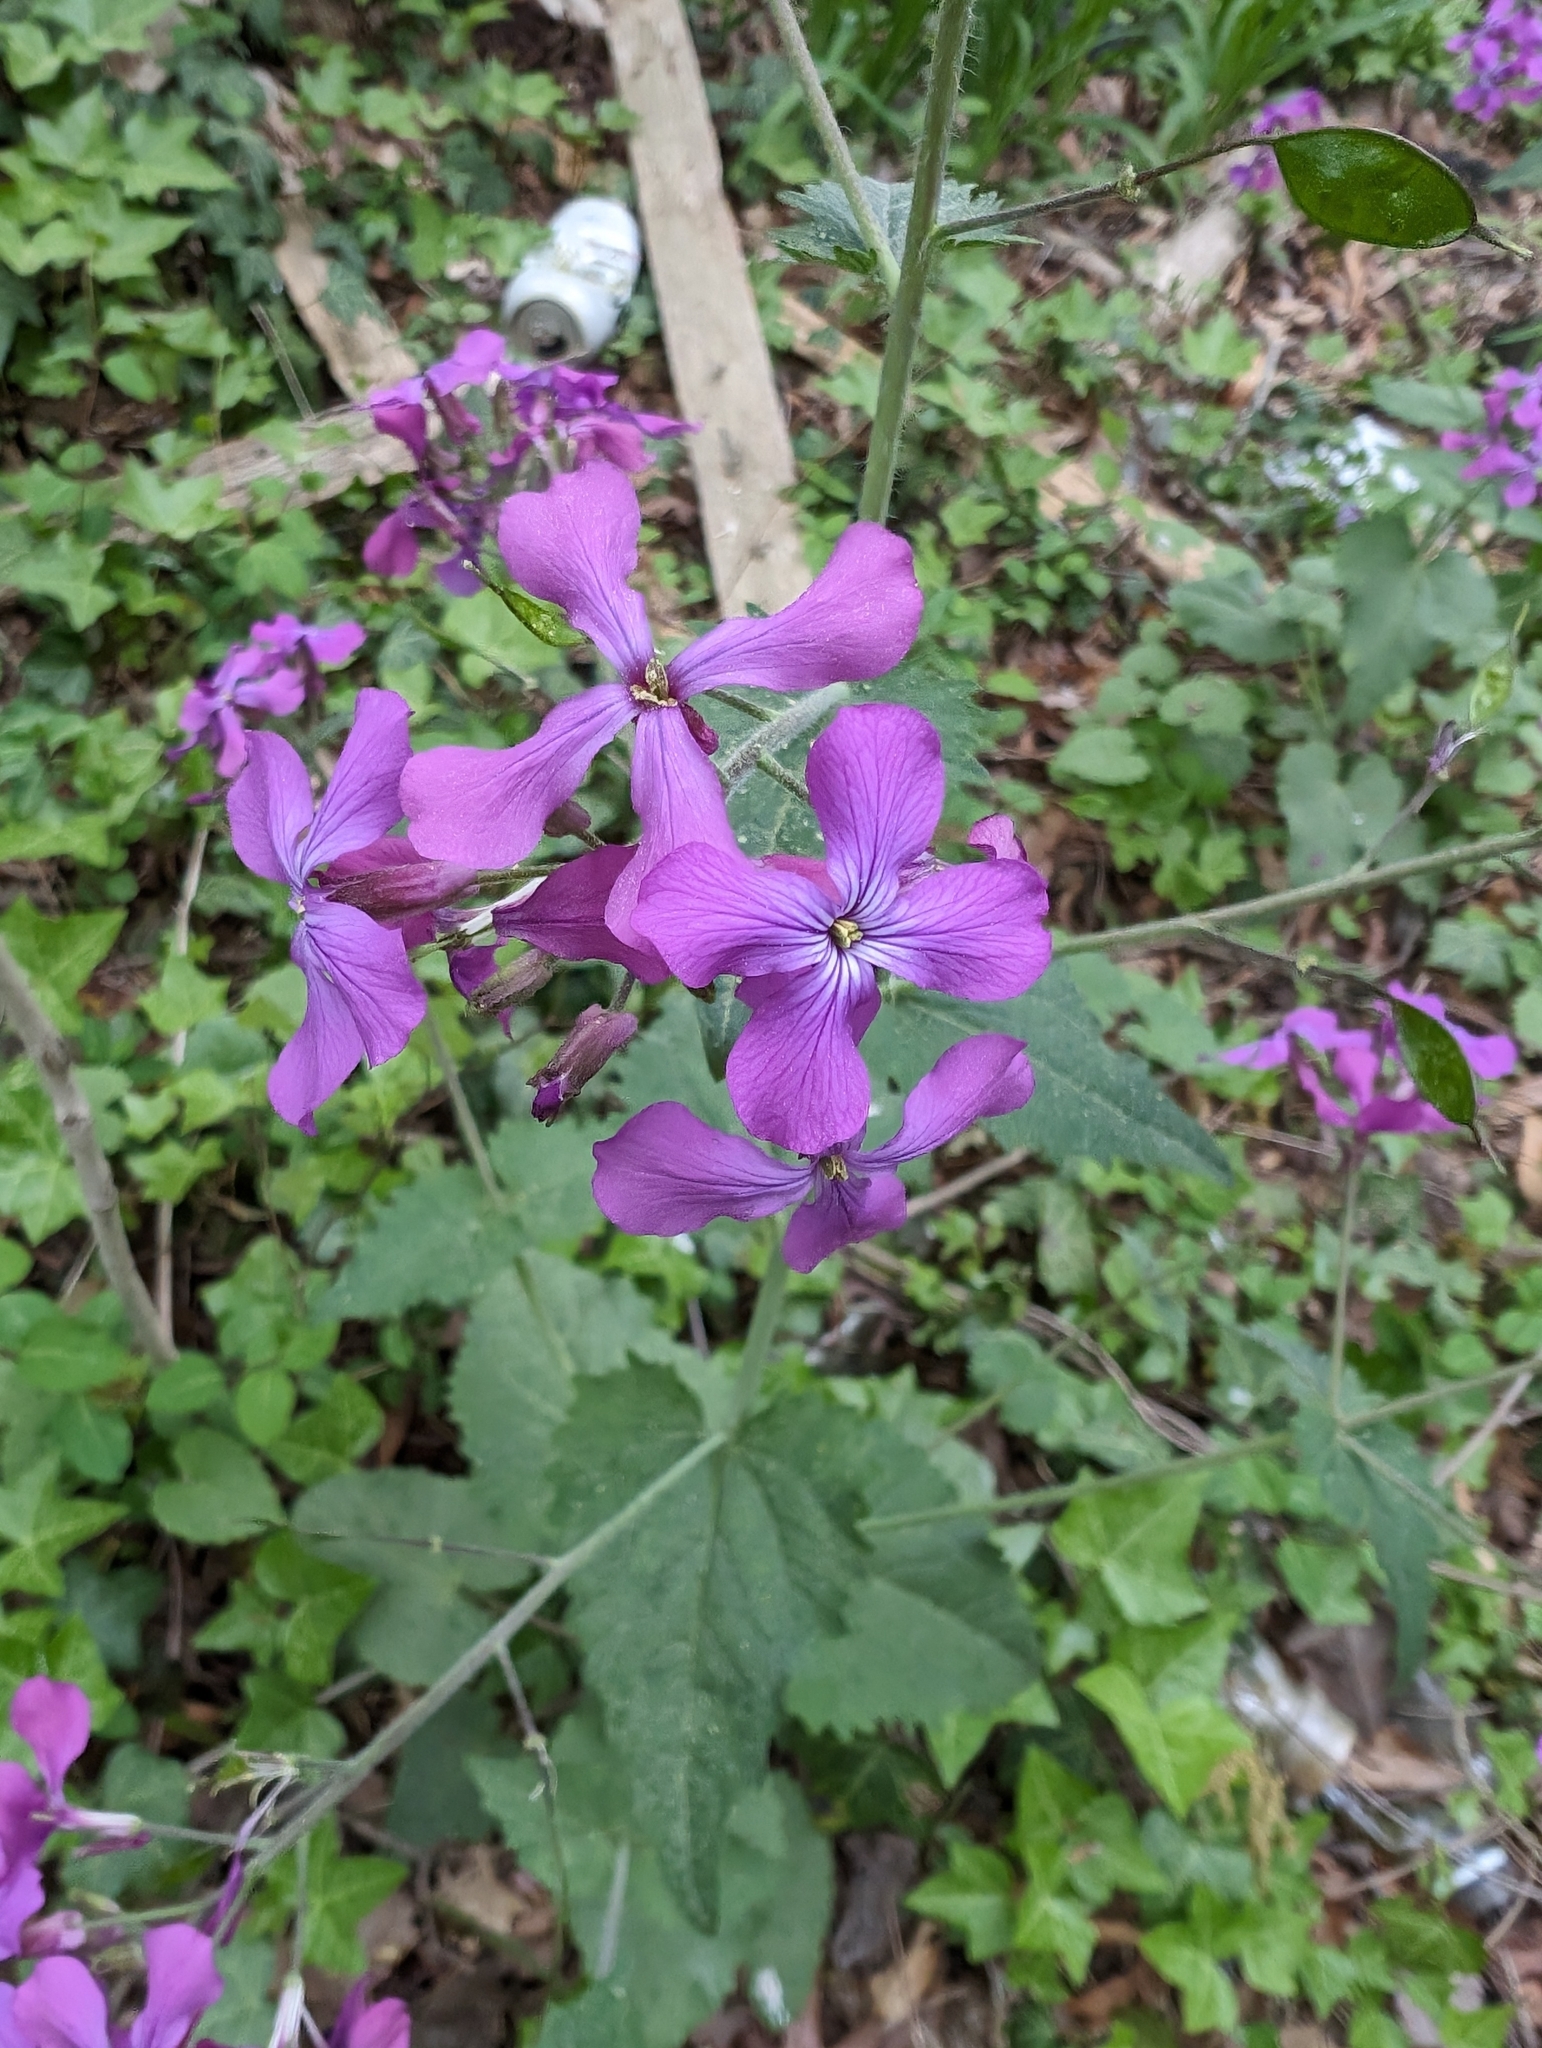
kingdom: Plantae
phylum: Tracheophyta
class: Magnoliopsida
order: Brassicales
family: Brassicaceae
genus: Lunaria
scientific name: Lunaria annua
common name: Honesty
